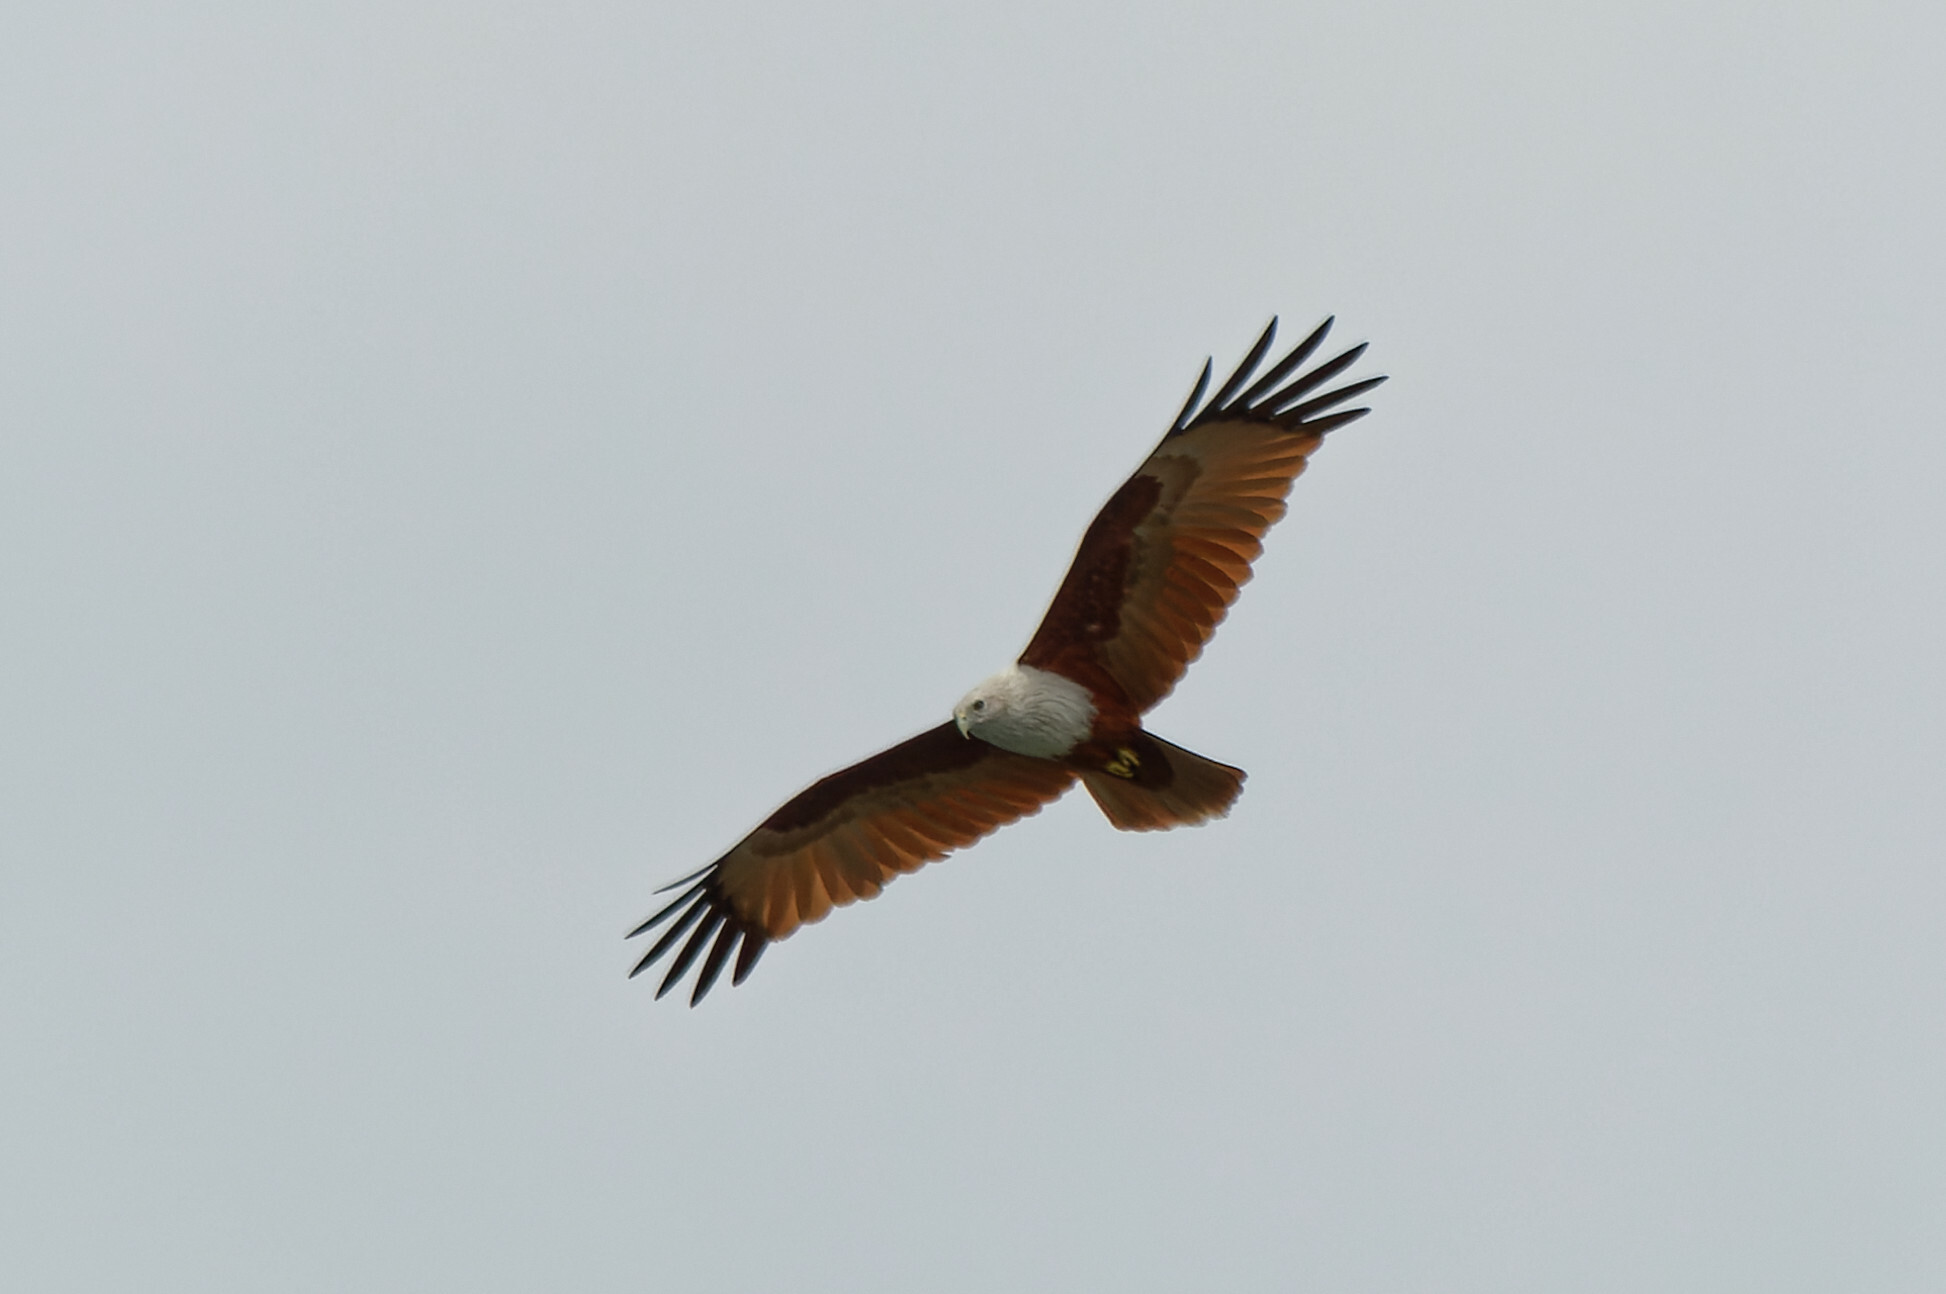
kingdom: Animalia
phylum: Chordata
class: Aves
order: Accipitriformes
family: Accipitridae
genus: Haliastur
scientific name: Haliastur indus
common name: Brahminy kite
